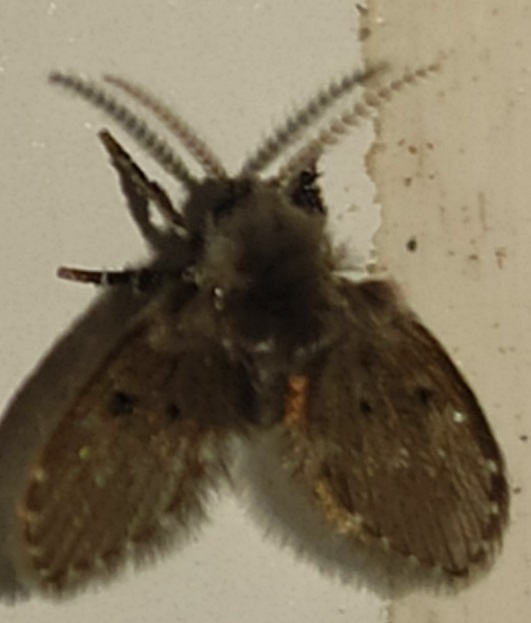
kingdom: Animalia
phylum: Arthropoda
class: Insecta
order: Diptera
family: Psychodidae
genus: Clogmia
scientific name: Clogmia albipunctatus
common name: White-spotted moth fly
